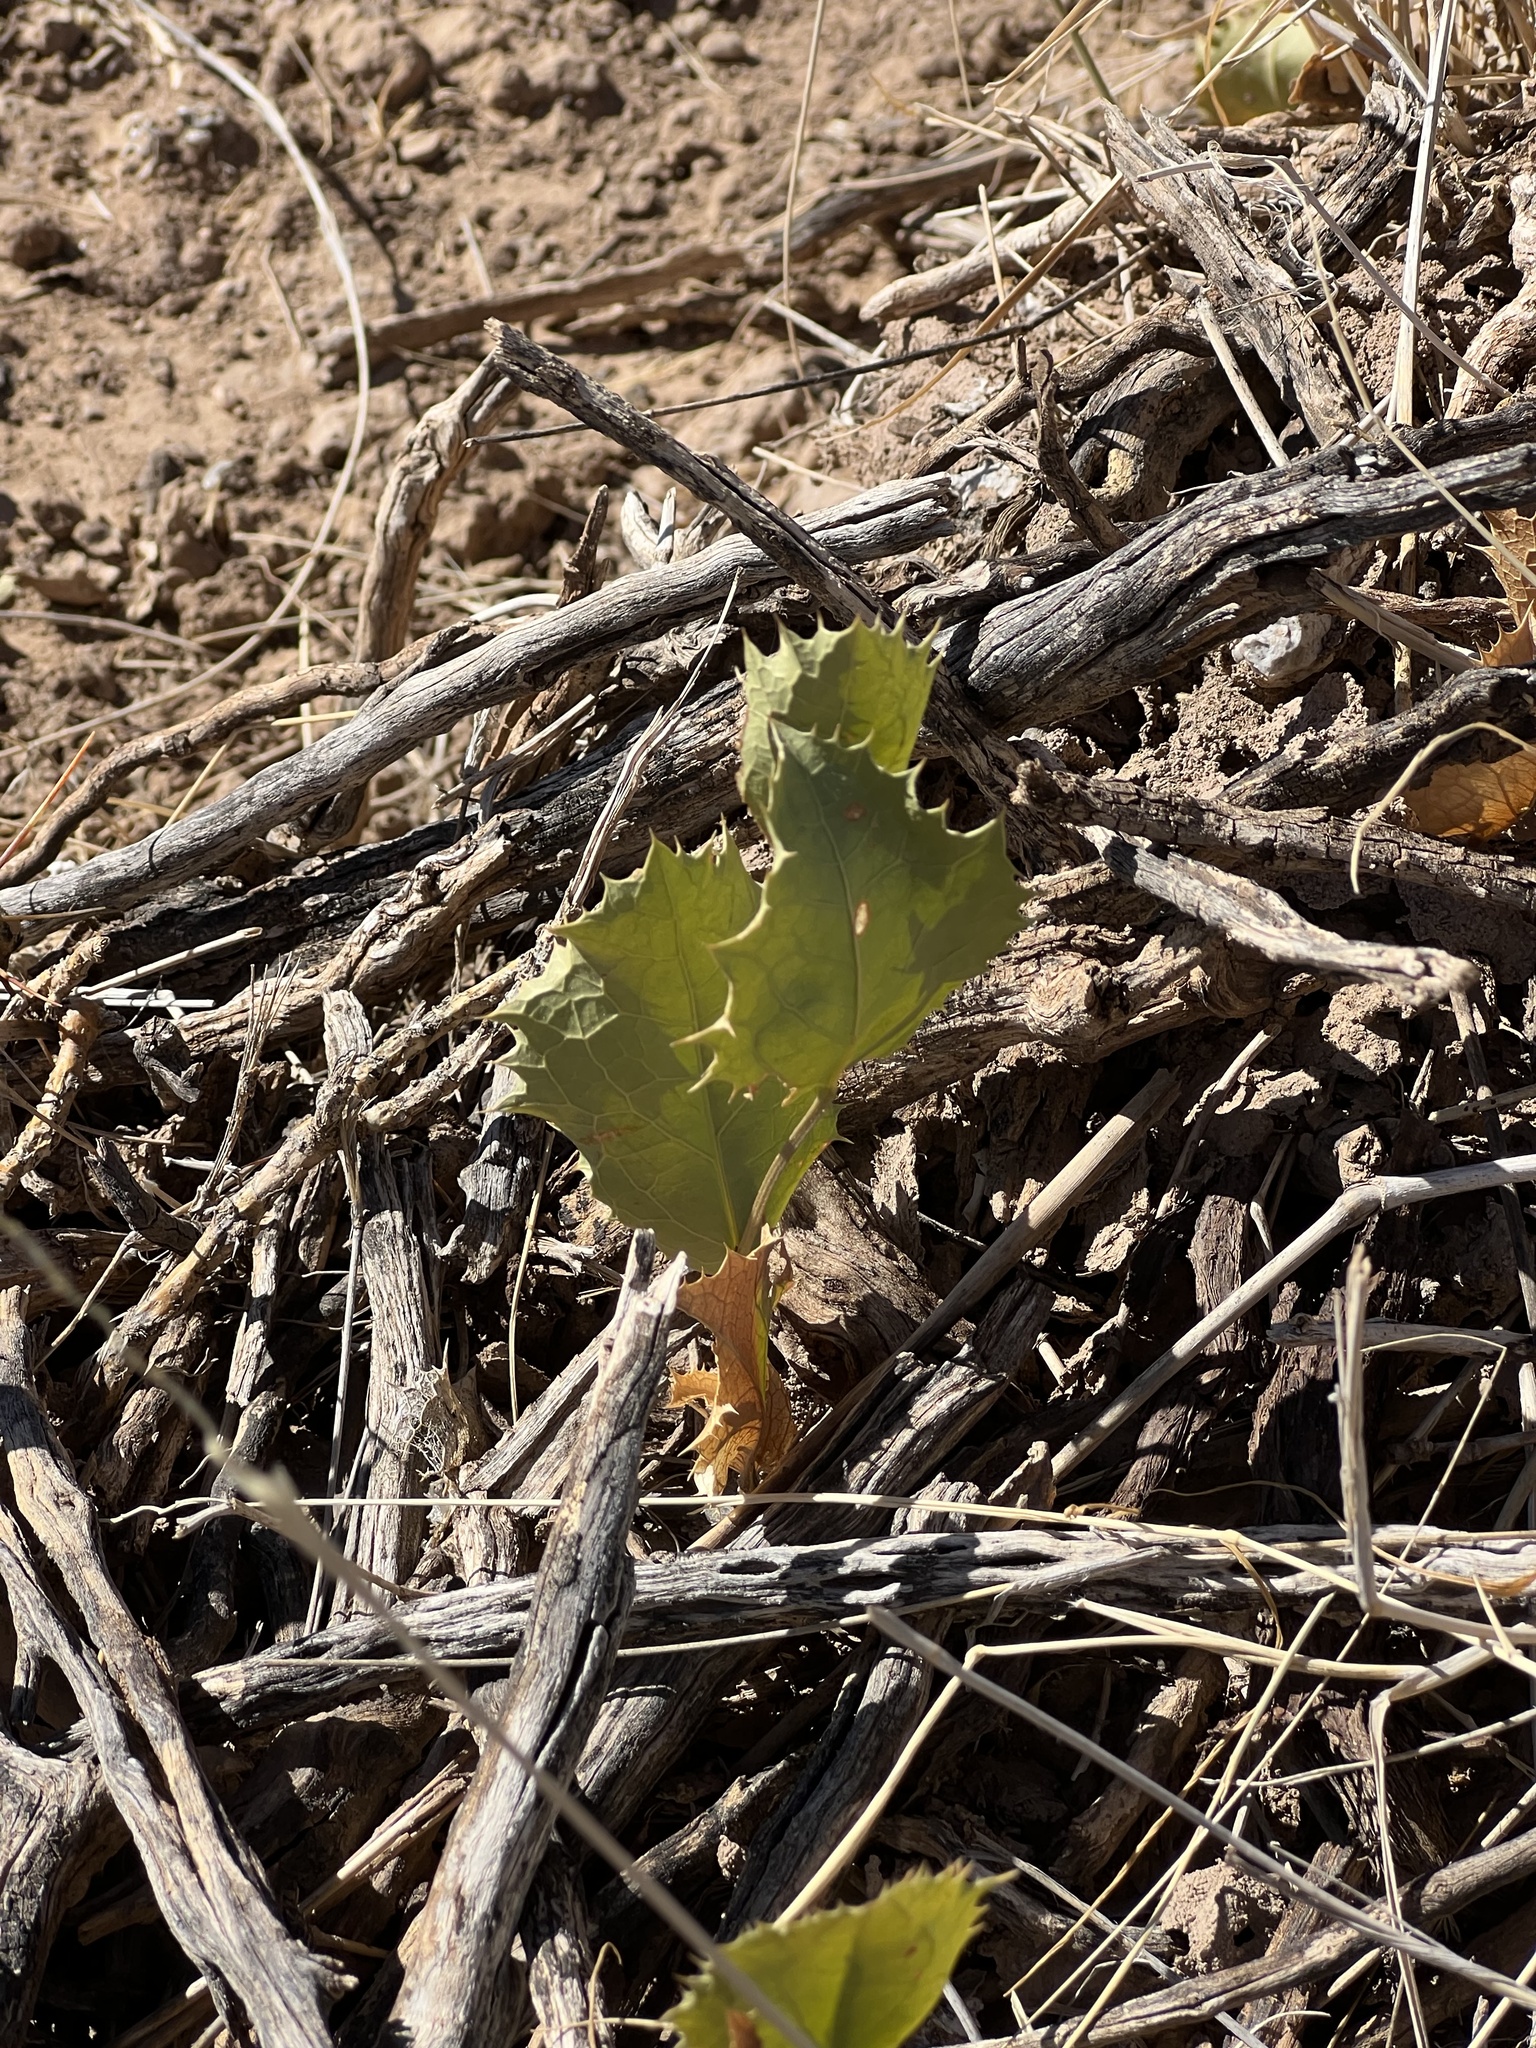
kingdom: Plantae
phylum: Tracheophyta
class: Magnoliopsida
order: Asterales
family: Asteraceae
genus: Acourtia
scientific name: Acourtia nana
